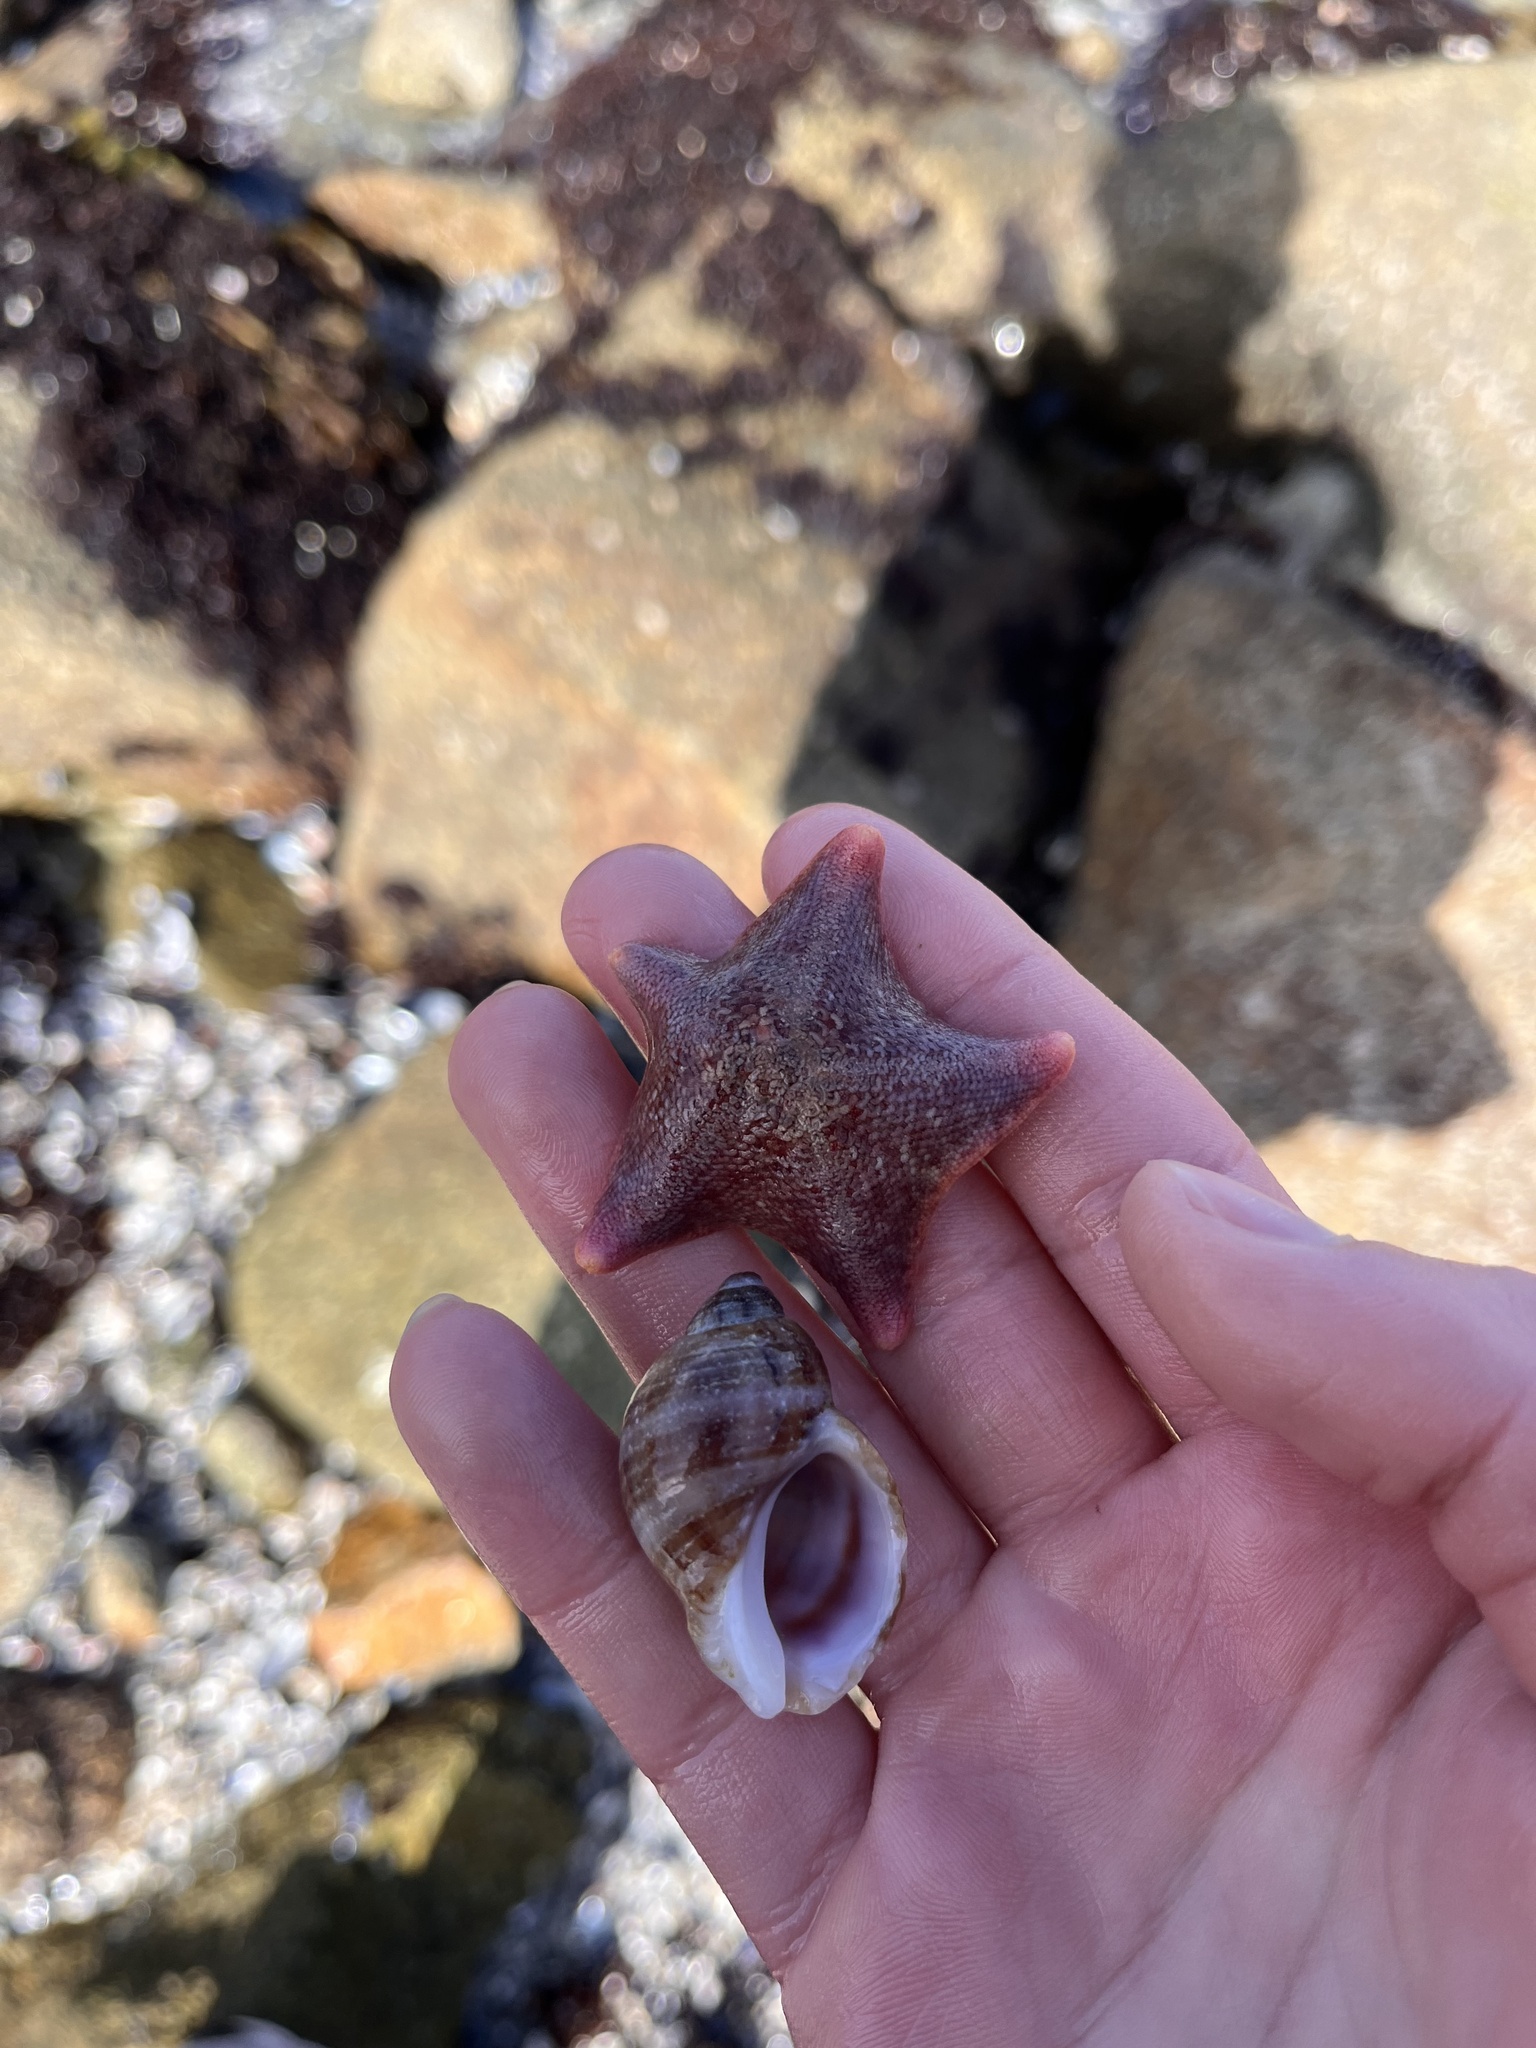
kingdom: Animalia
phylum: Echinodermata
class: Asteroidea
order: Valvatida
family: Asterinidae
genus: Patiria
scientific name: Patiria miniata
